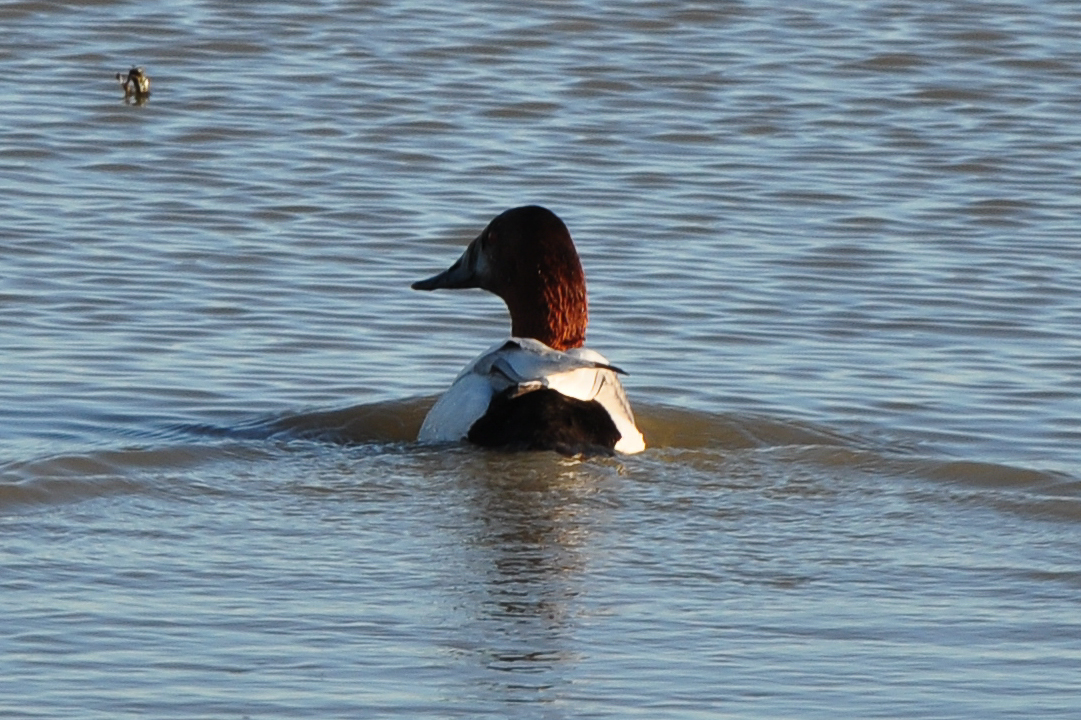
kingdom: Animalia
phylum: Chordata
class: Aves
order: Anseriformes
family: Anatidae
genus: Aythya
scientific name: Aythya valisineria
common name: Canvasback
